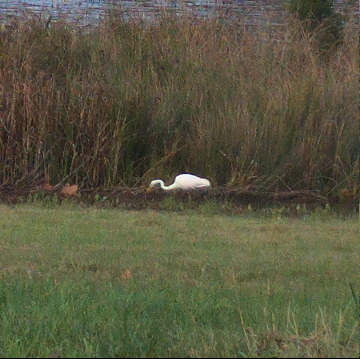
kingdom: Animalia
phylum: Chordata
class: Aves
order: Pelecaniformes
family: Ardeidae
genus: Ardea
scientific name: Ardea alba
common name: Great egret
